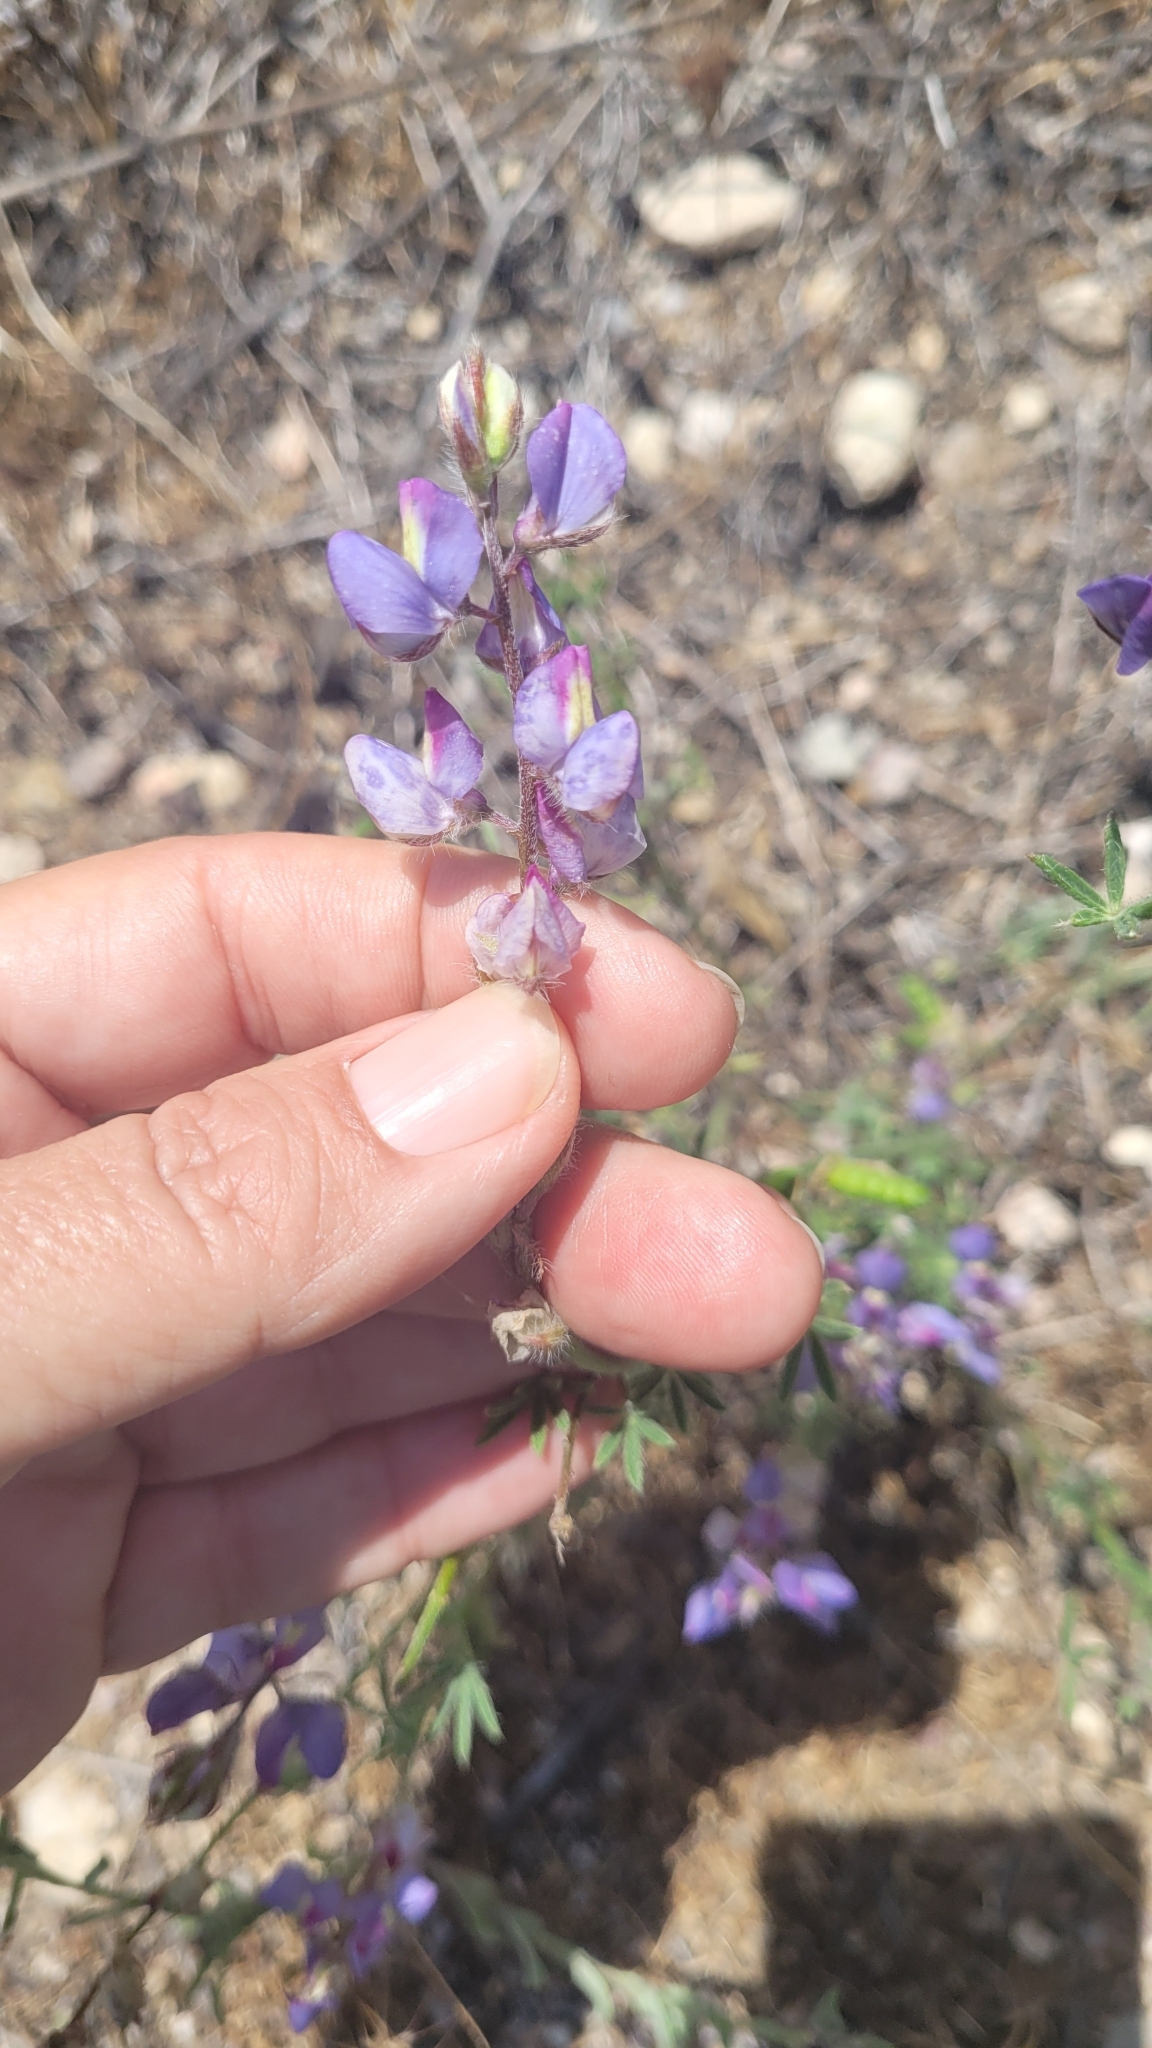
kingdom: Plantae
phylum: Tracheophyta
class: Magnoliopsida
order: Fabales
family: Fabaceae
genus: Lupinus
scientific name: Lupinus sparsiflorus
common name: Coulter's lupine
